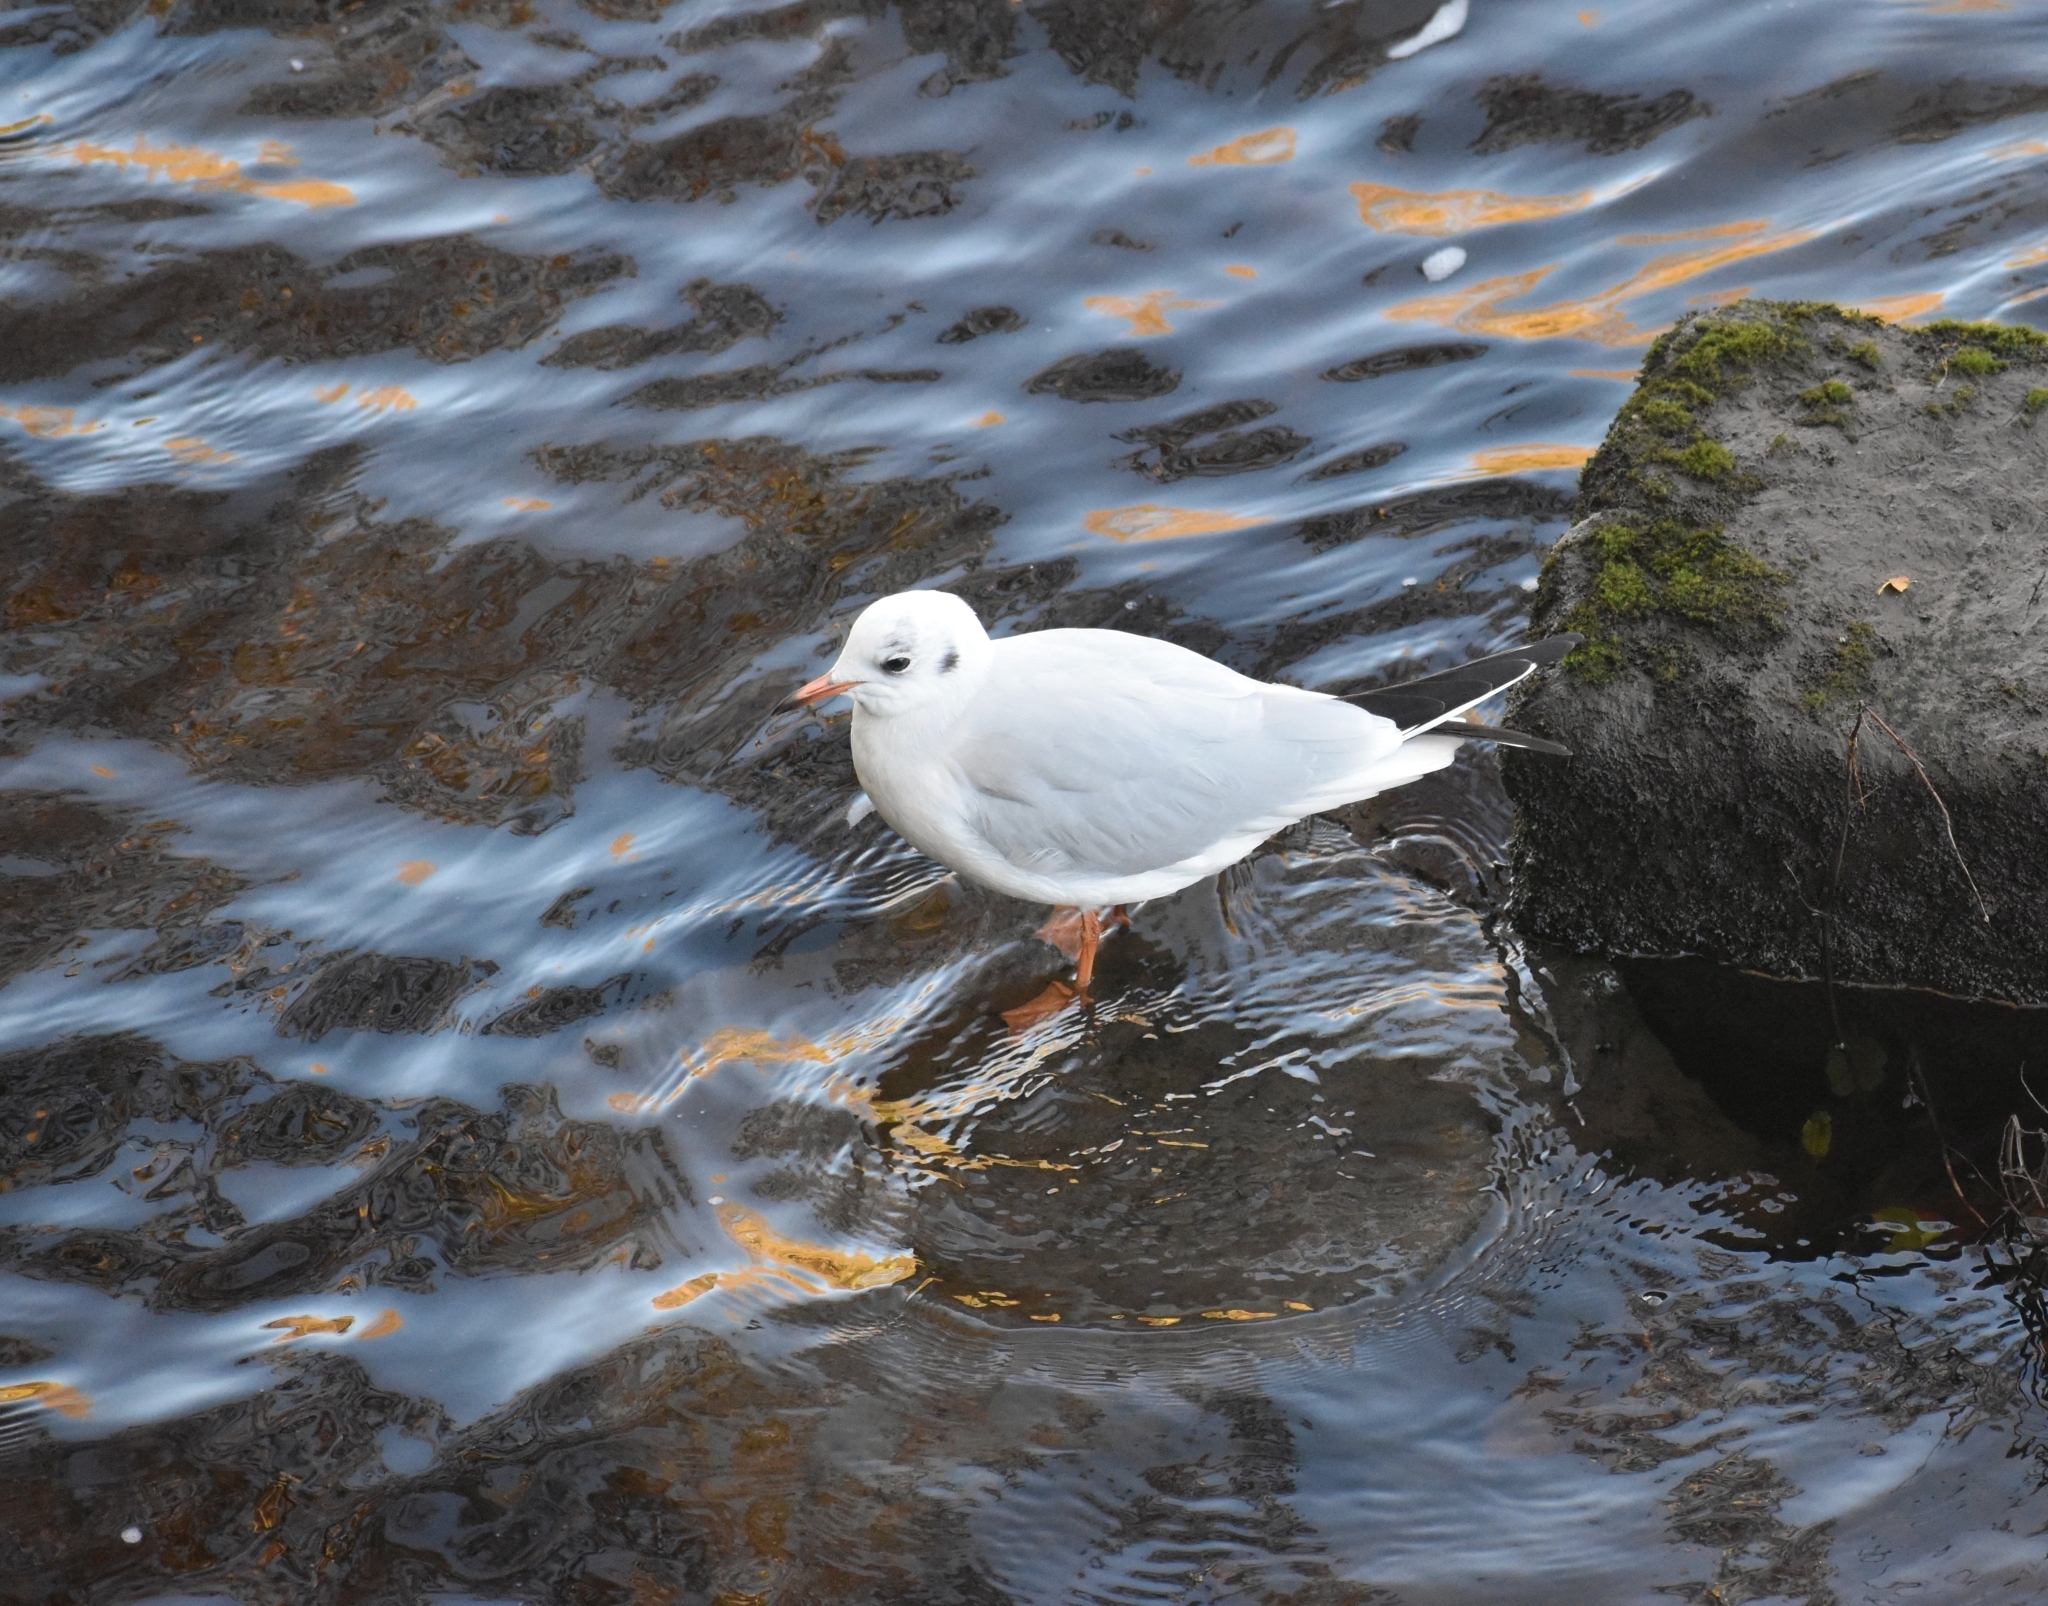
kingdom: Animalia
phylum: Chordata
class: Aves
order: Charadriiformes
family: Laridae
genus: Chroicocephalus
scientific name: Chroicocephalus ridibundus
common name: Black-headed gull
